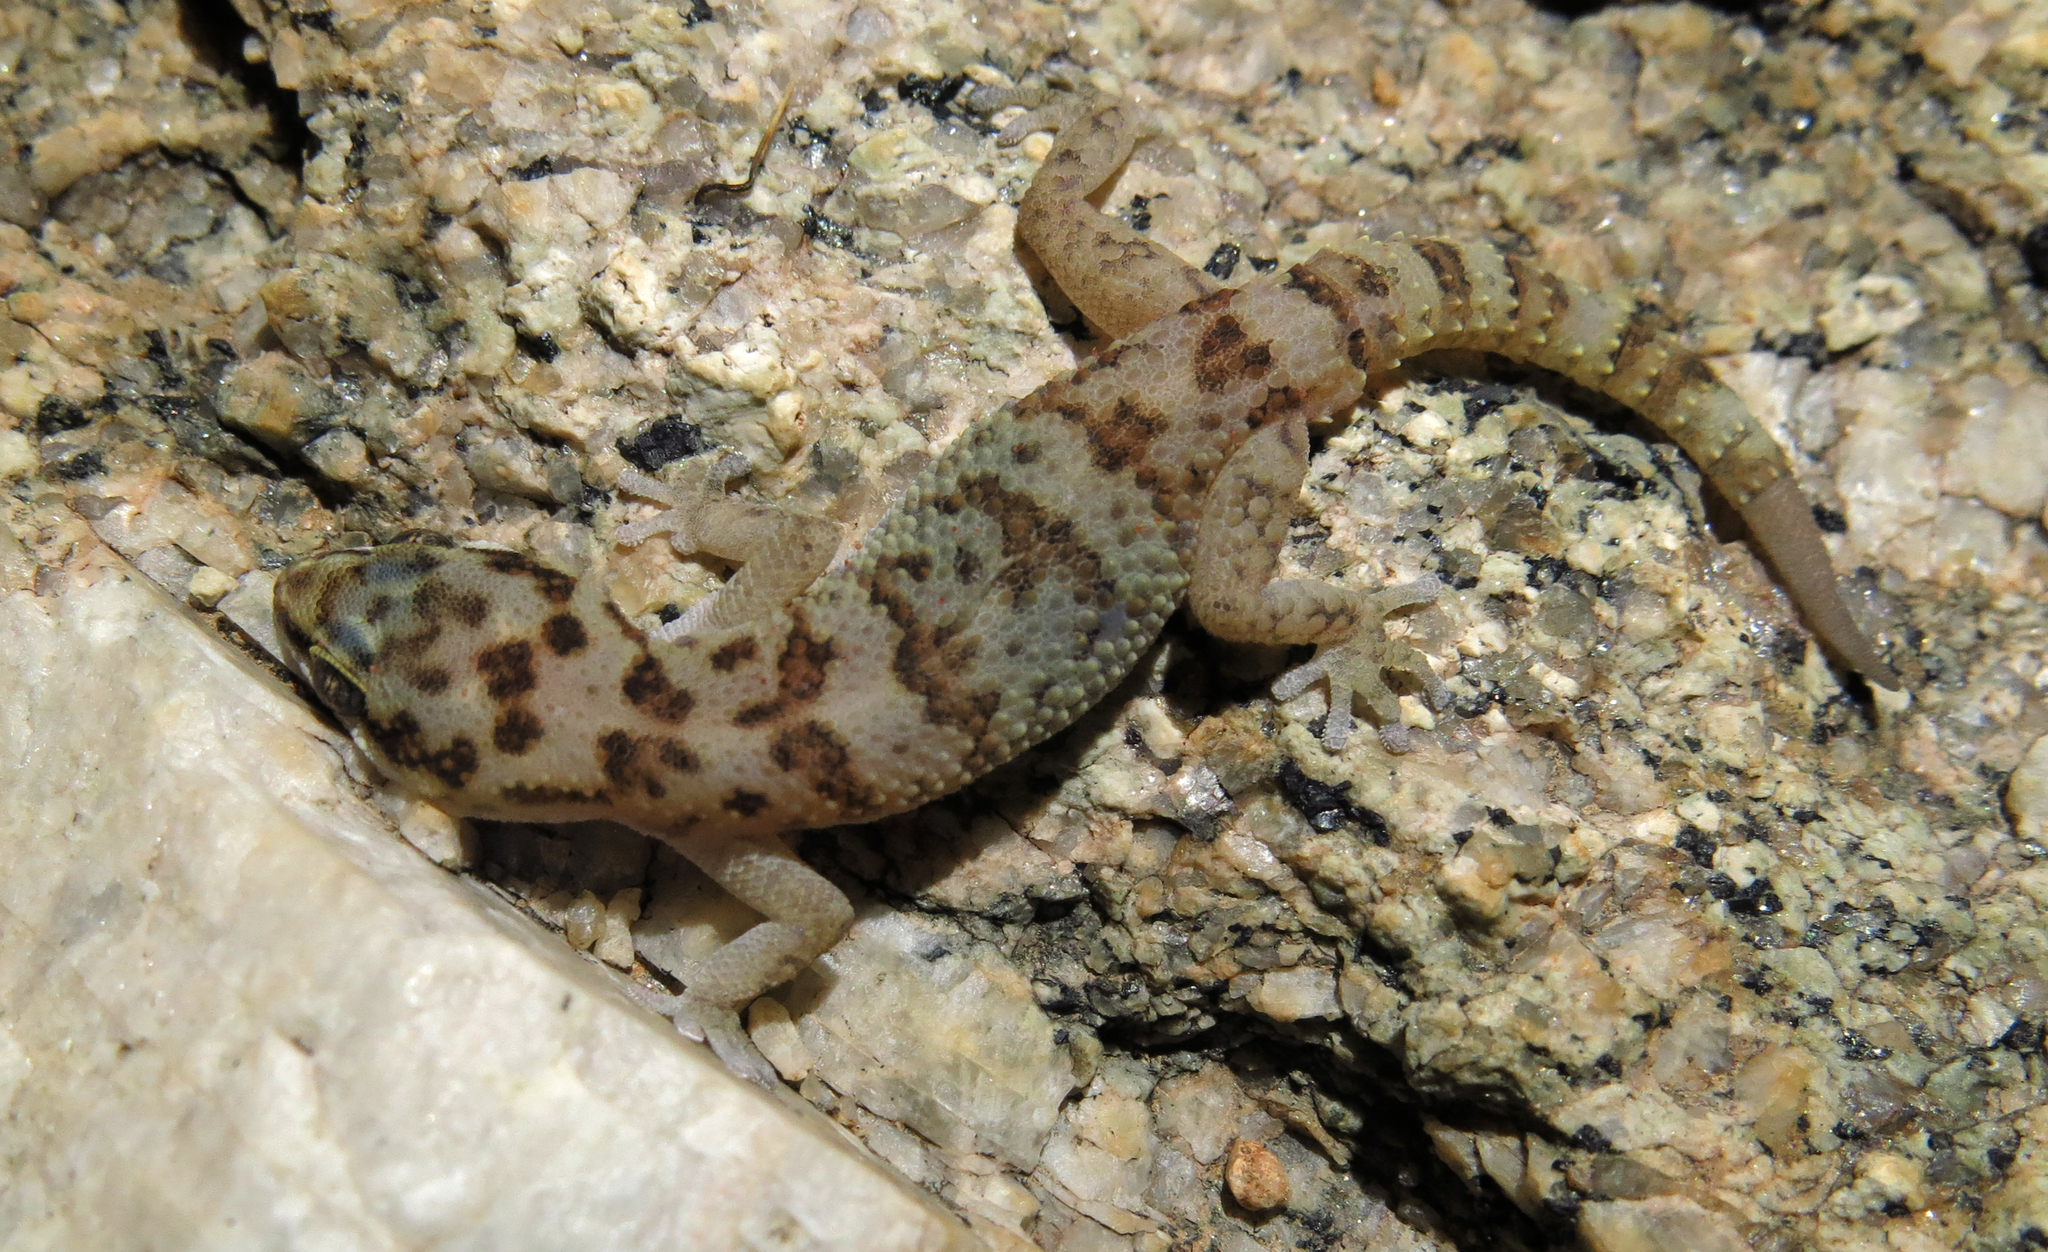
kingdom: Animalia
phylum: Chordata
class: Squamata
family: Gekkonidae
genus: Pachydactylus
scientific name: Pachydactylus weberi
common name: Weber's gecko
